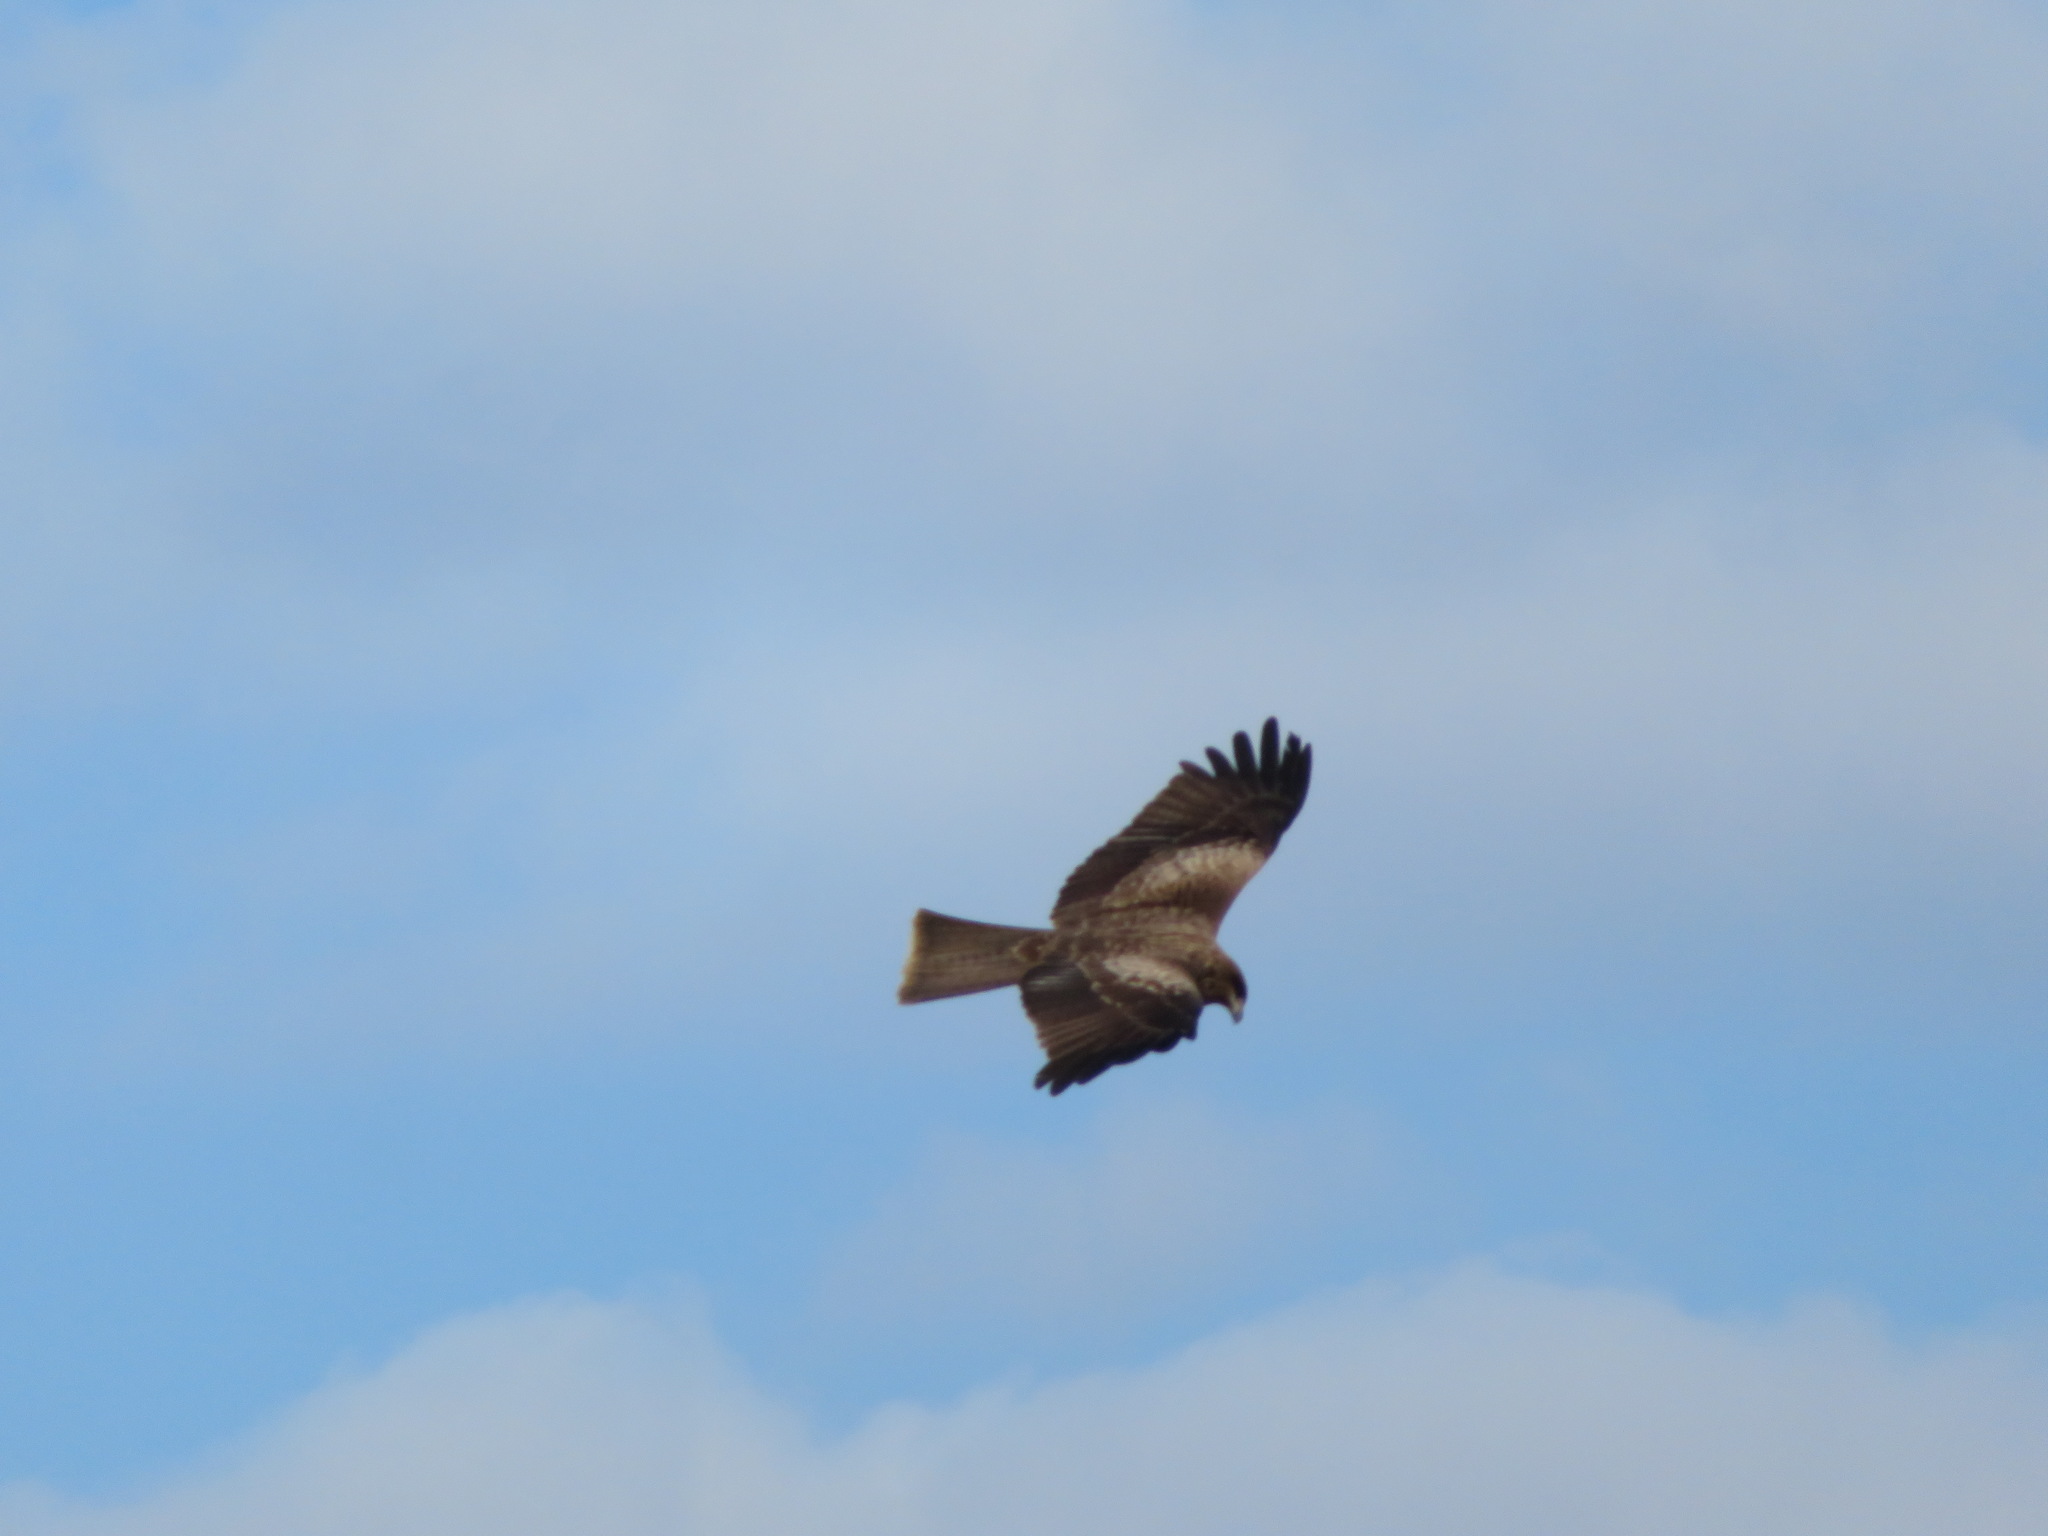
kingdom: Animalia
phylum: Chordata
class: Aves
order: Accipitriformes
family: Accipitridae
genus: Milvus
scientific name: Milvus migrans
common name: Black kite
